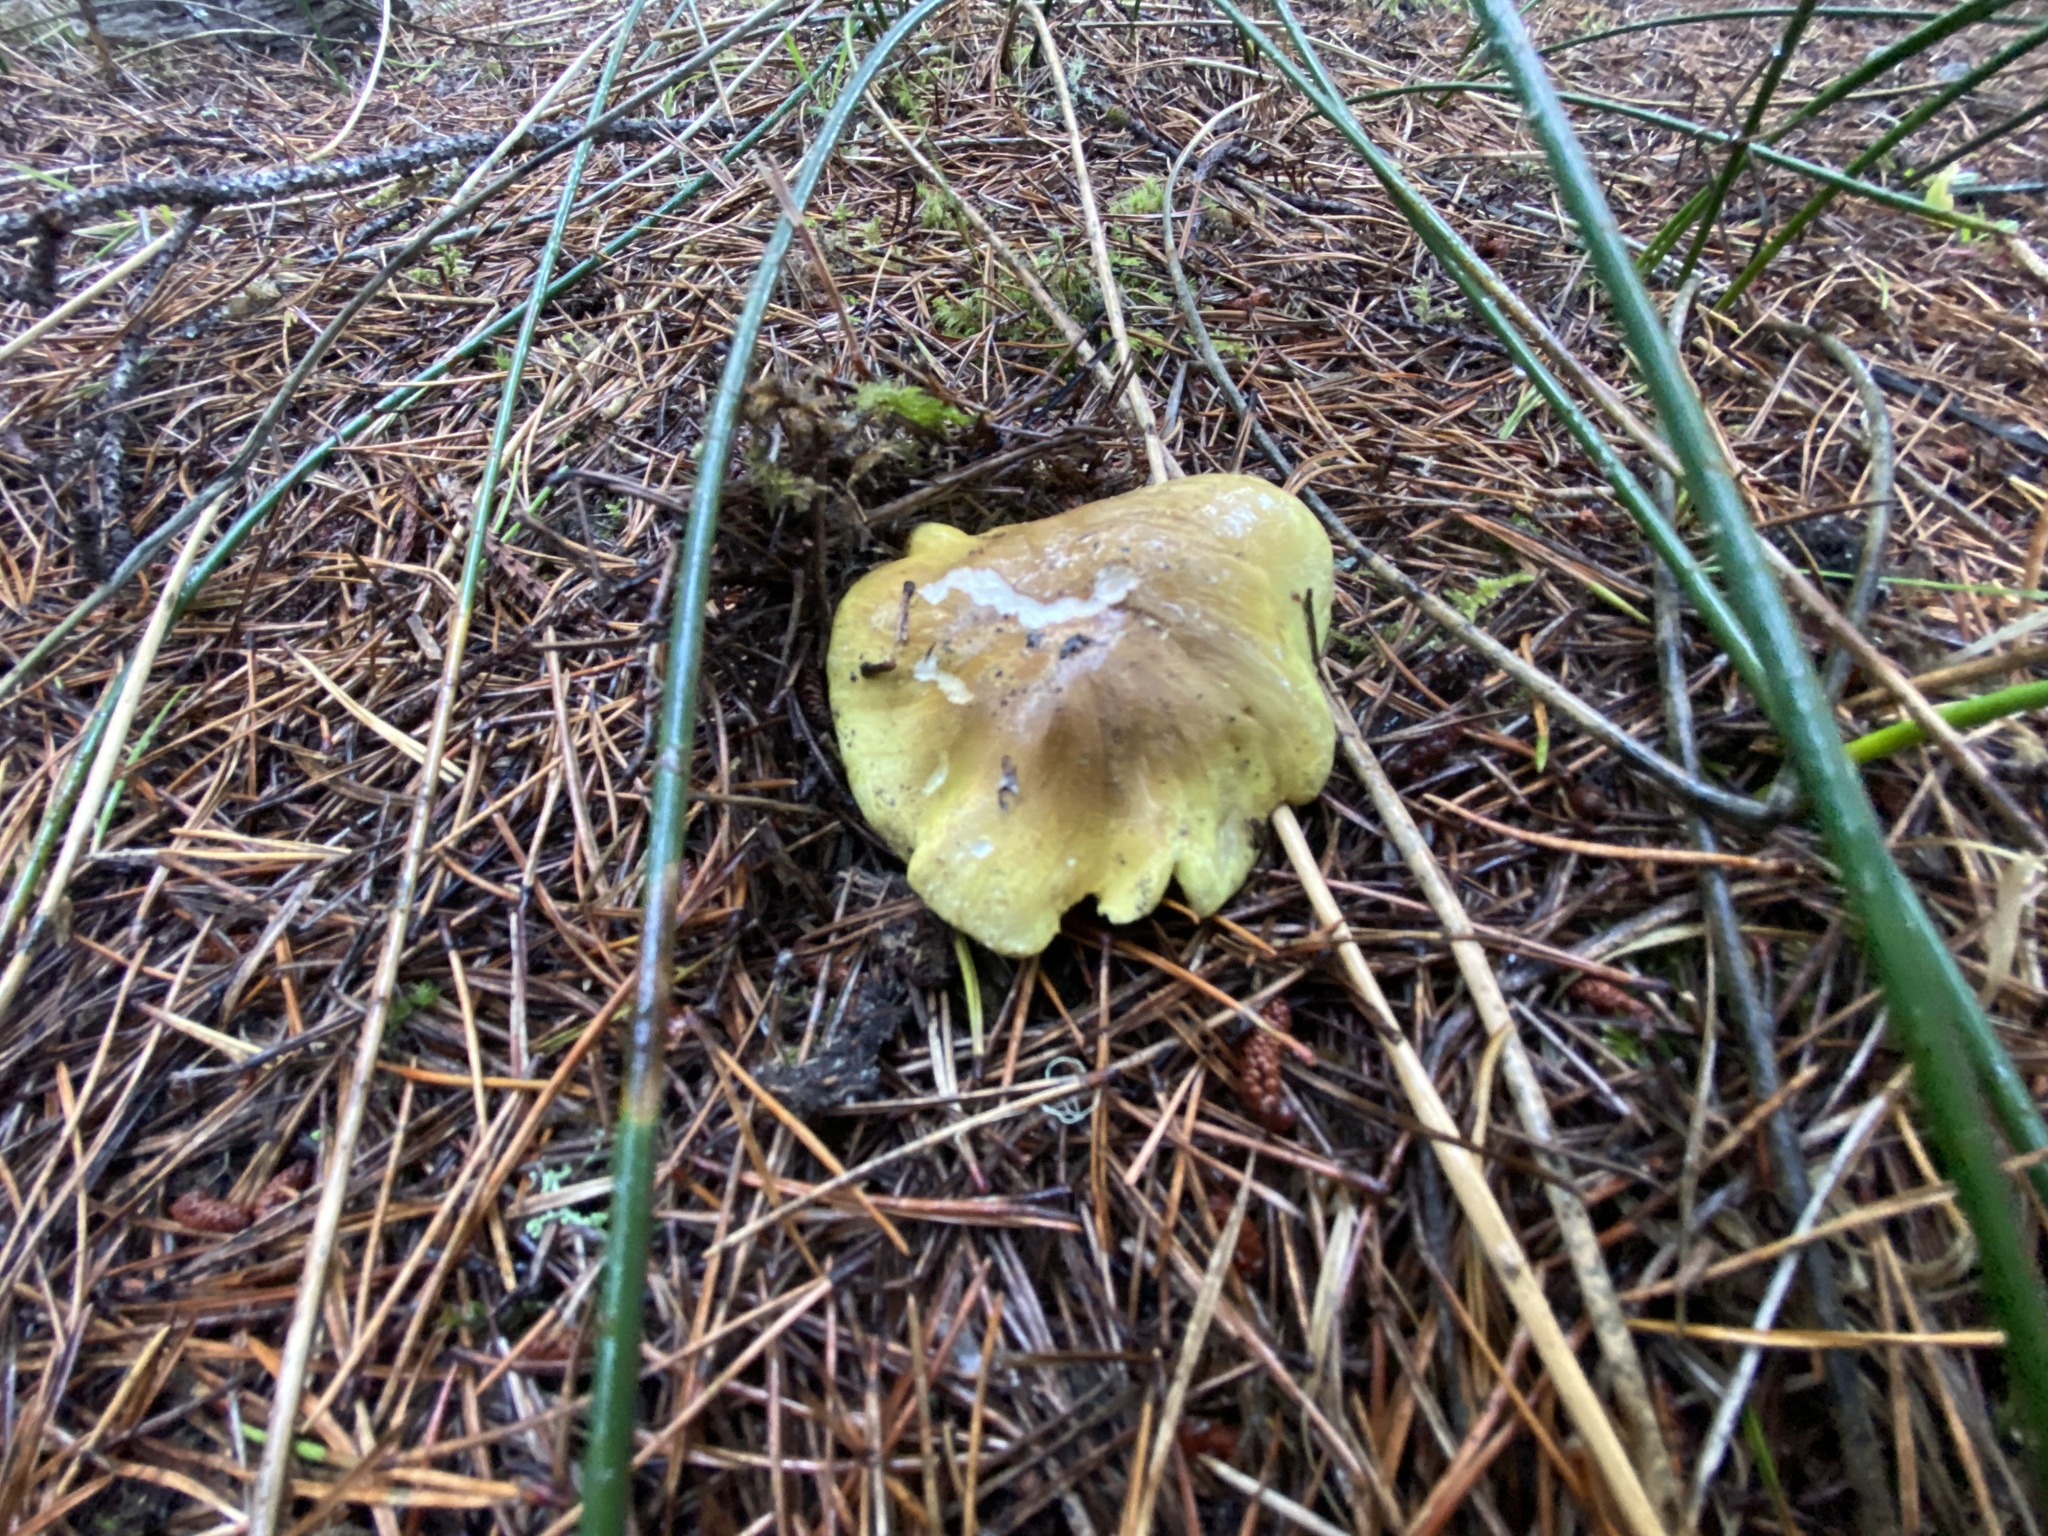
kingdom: Fungi
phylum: Basidiomycota
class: Agaricomycetes
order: Agaricales
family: Tricholomataceae
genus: Tricholoma
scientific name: Tricholoma equestre
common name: Yellow knight
